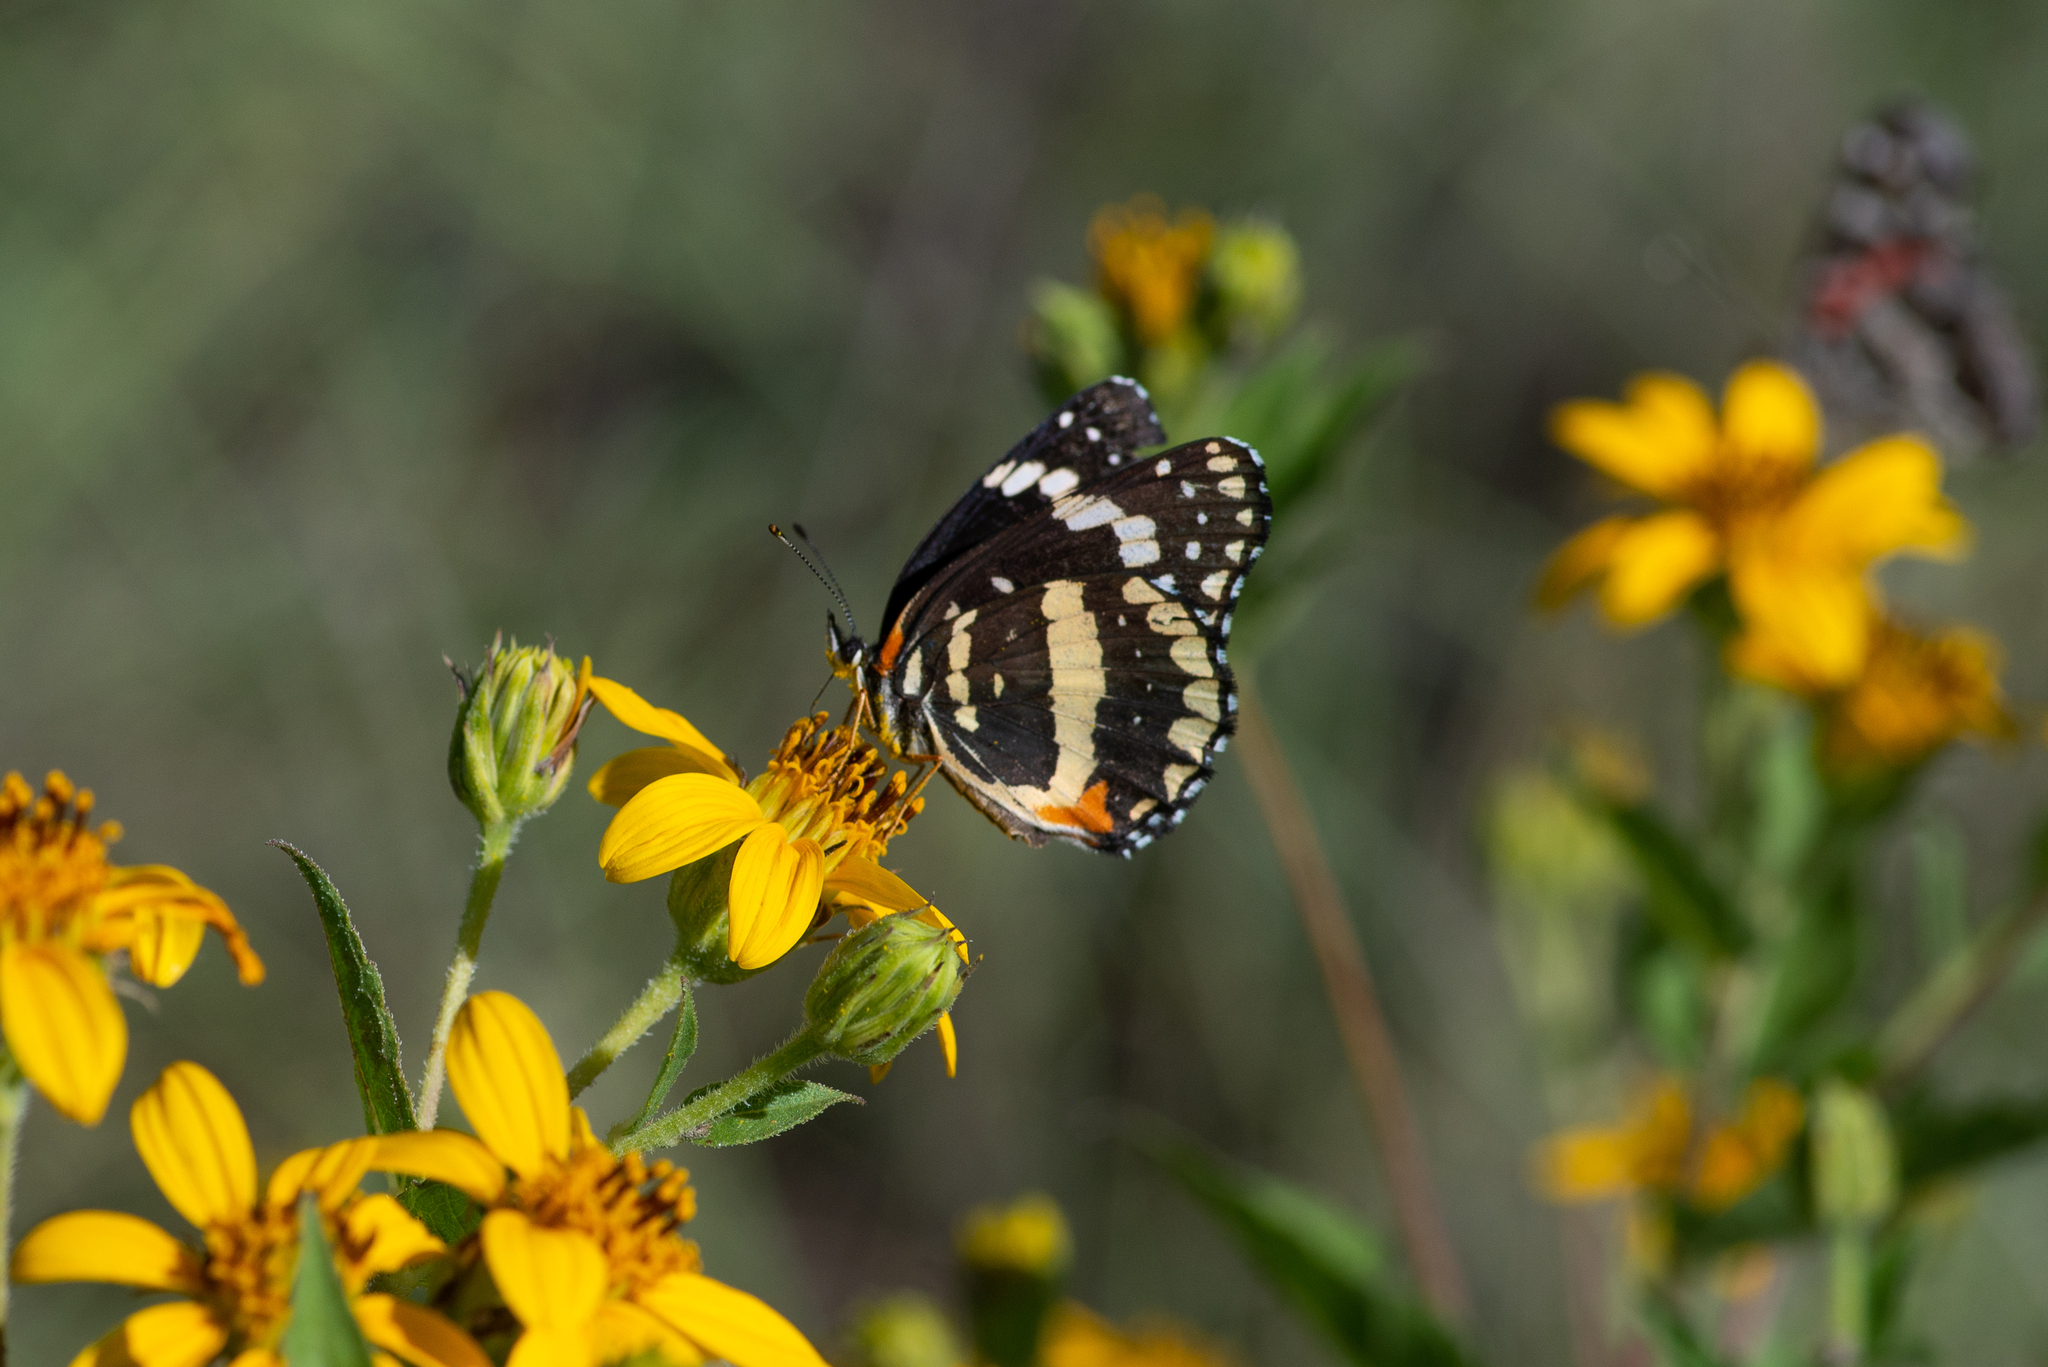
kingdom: Animalia
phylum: Arthropoda
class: Insecta
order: Lepidoptera
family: Nymphalidae
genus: Chlosyne
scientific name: Chlosyne lacinia
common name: Bordered patch
